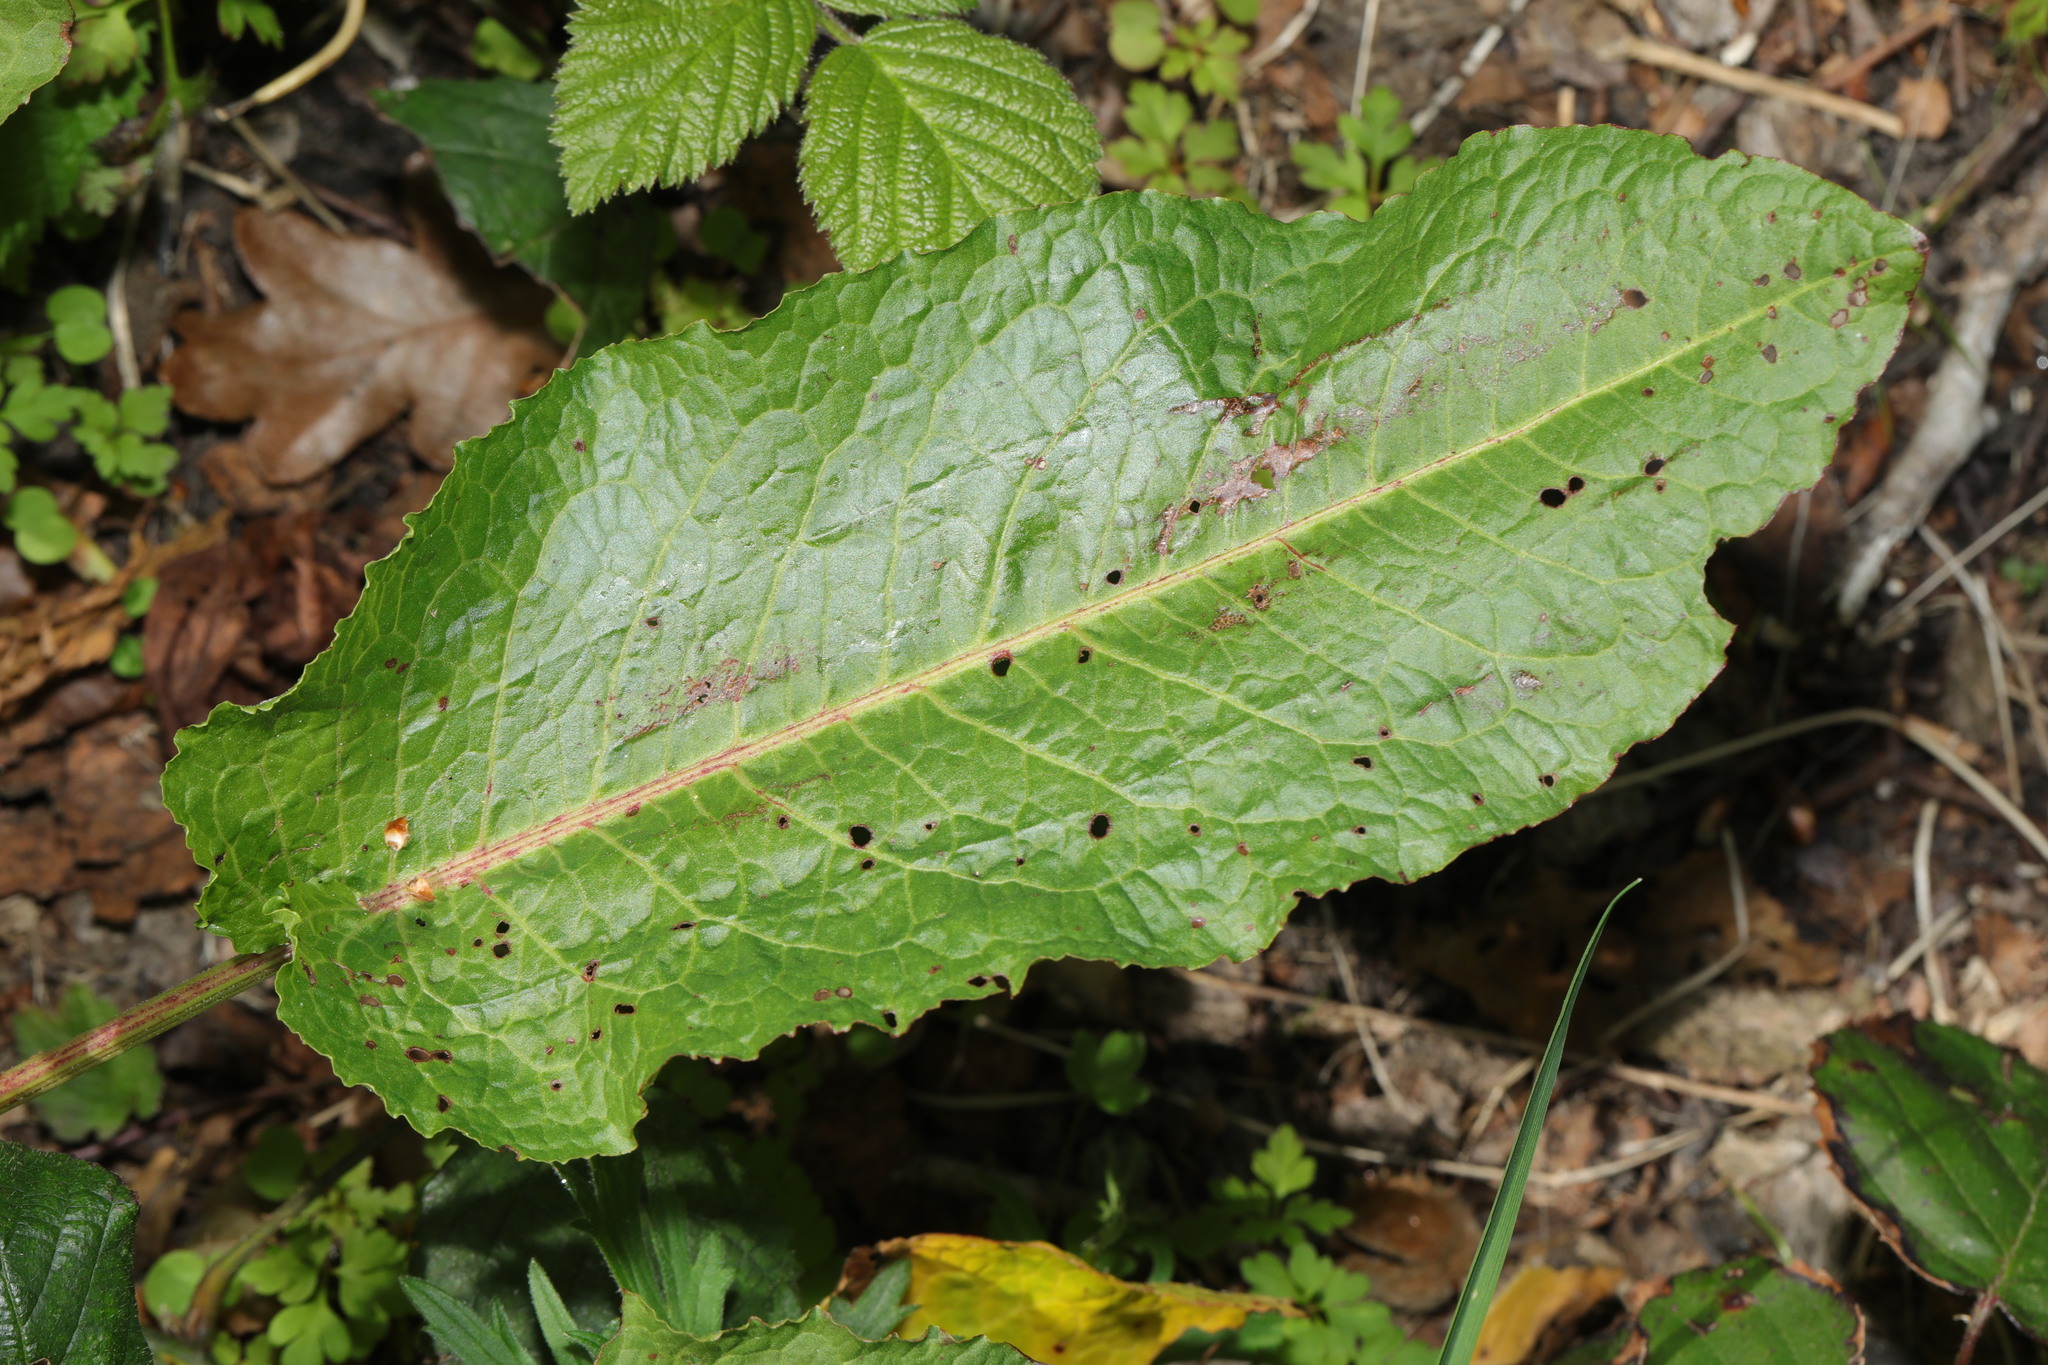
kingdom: Plantae
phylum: Tracheophyta
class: Magnoliopsida
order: Caryophyllales
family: Polygonaceae
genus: Rumex
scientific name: Rumex obtusifolius
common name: Bitter dock
